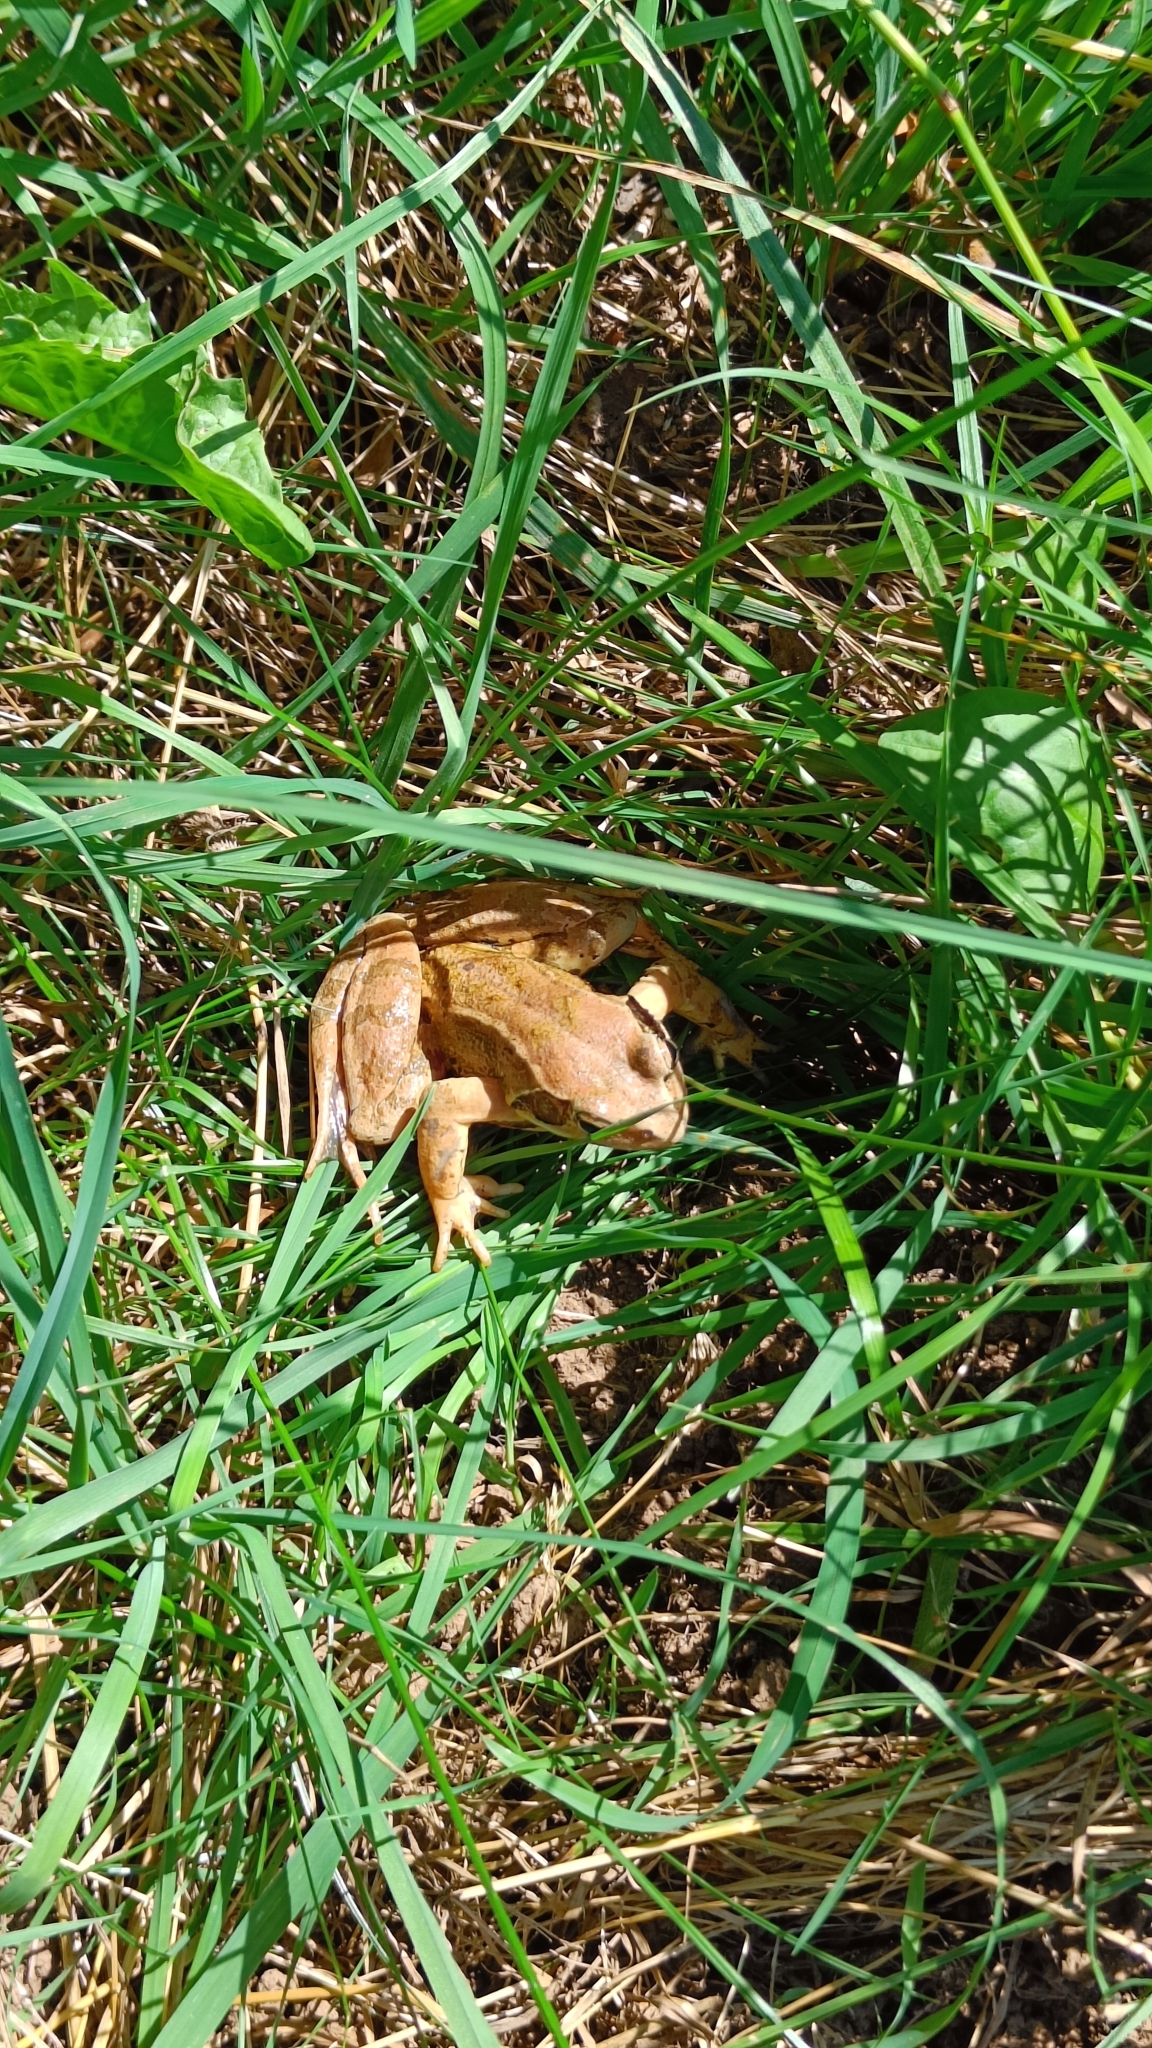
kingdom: Animalia
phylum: Chordata
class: Amphibia
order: Anura
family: Ranidae
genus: Rana
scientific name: Rana temporaria
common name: Common frog
